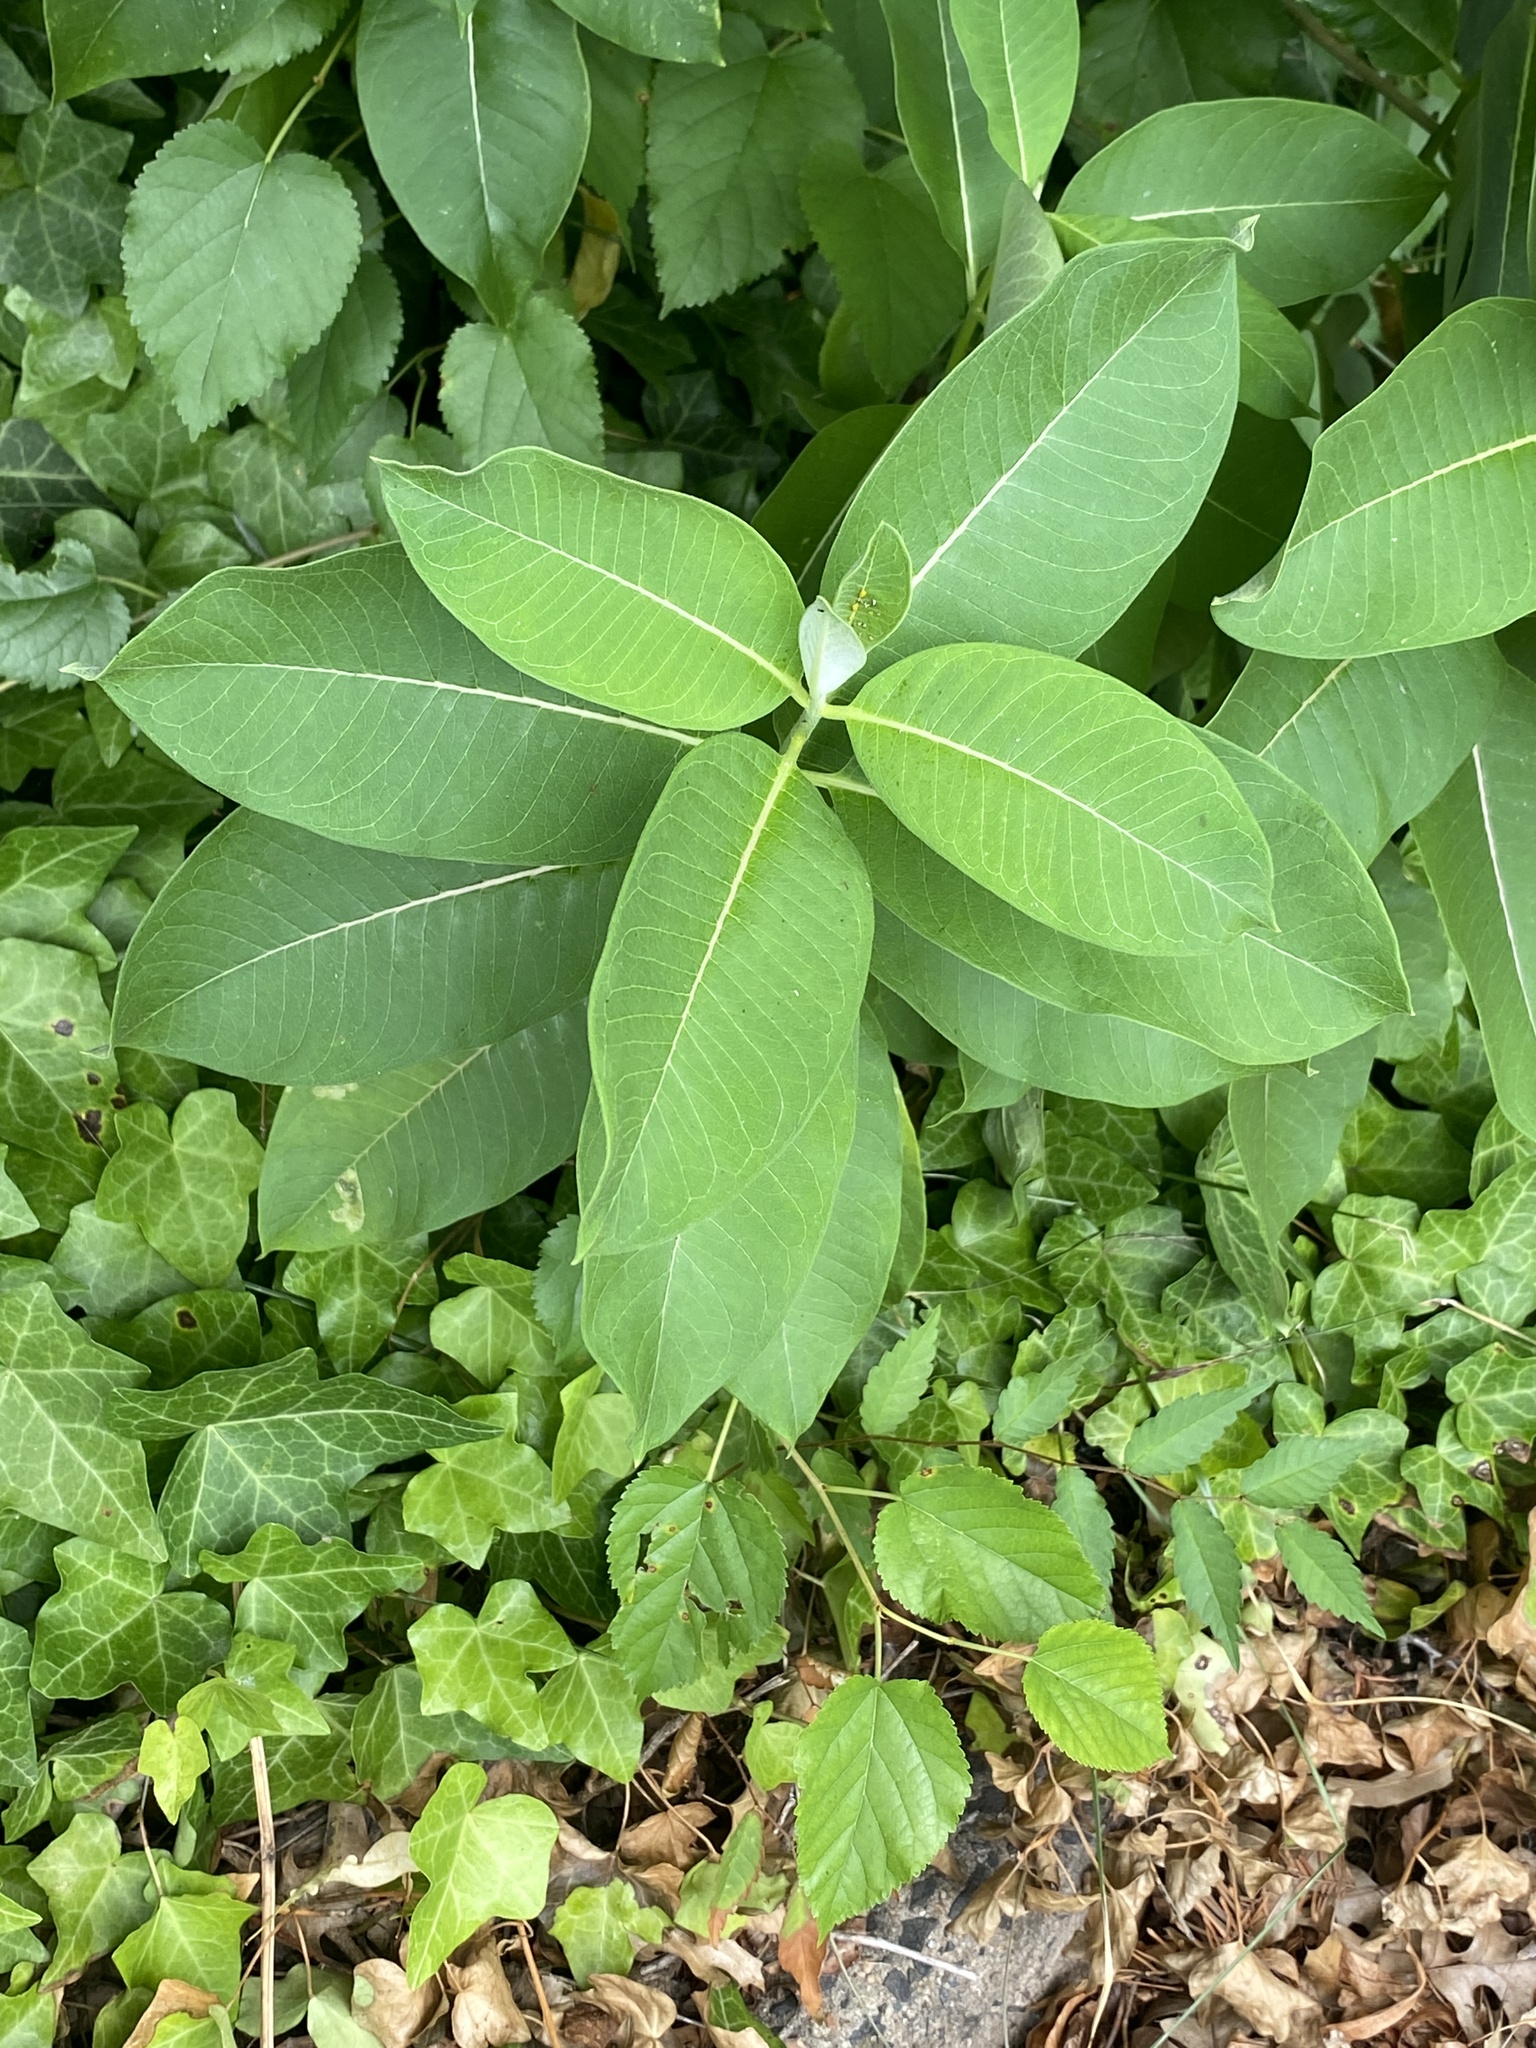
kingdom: Plantae
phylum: Tracheophyta
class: Magnoliopsida
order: Gentianales
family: Apocynaceae
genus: Asclepias
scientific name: Asclepias syriaca
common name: Common milkweed
